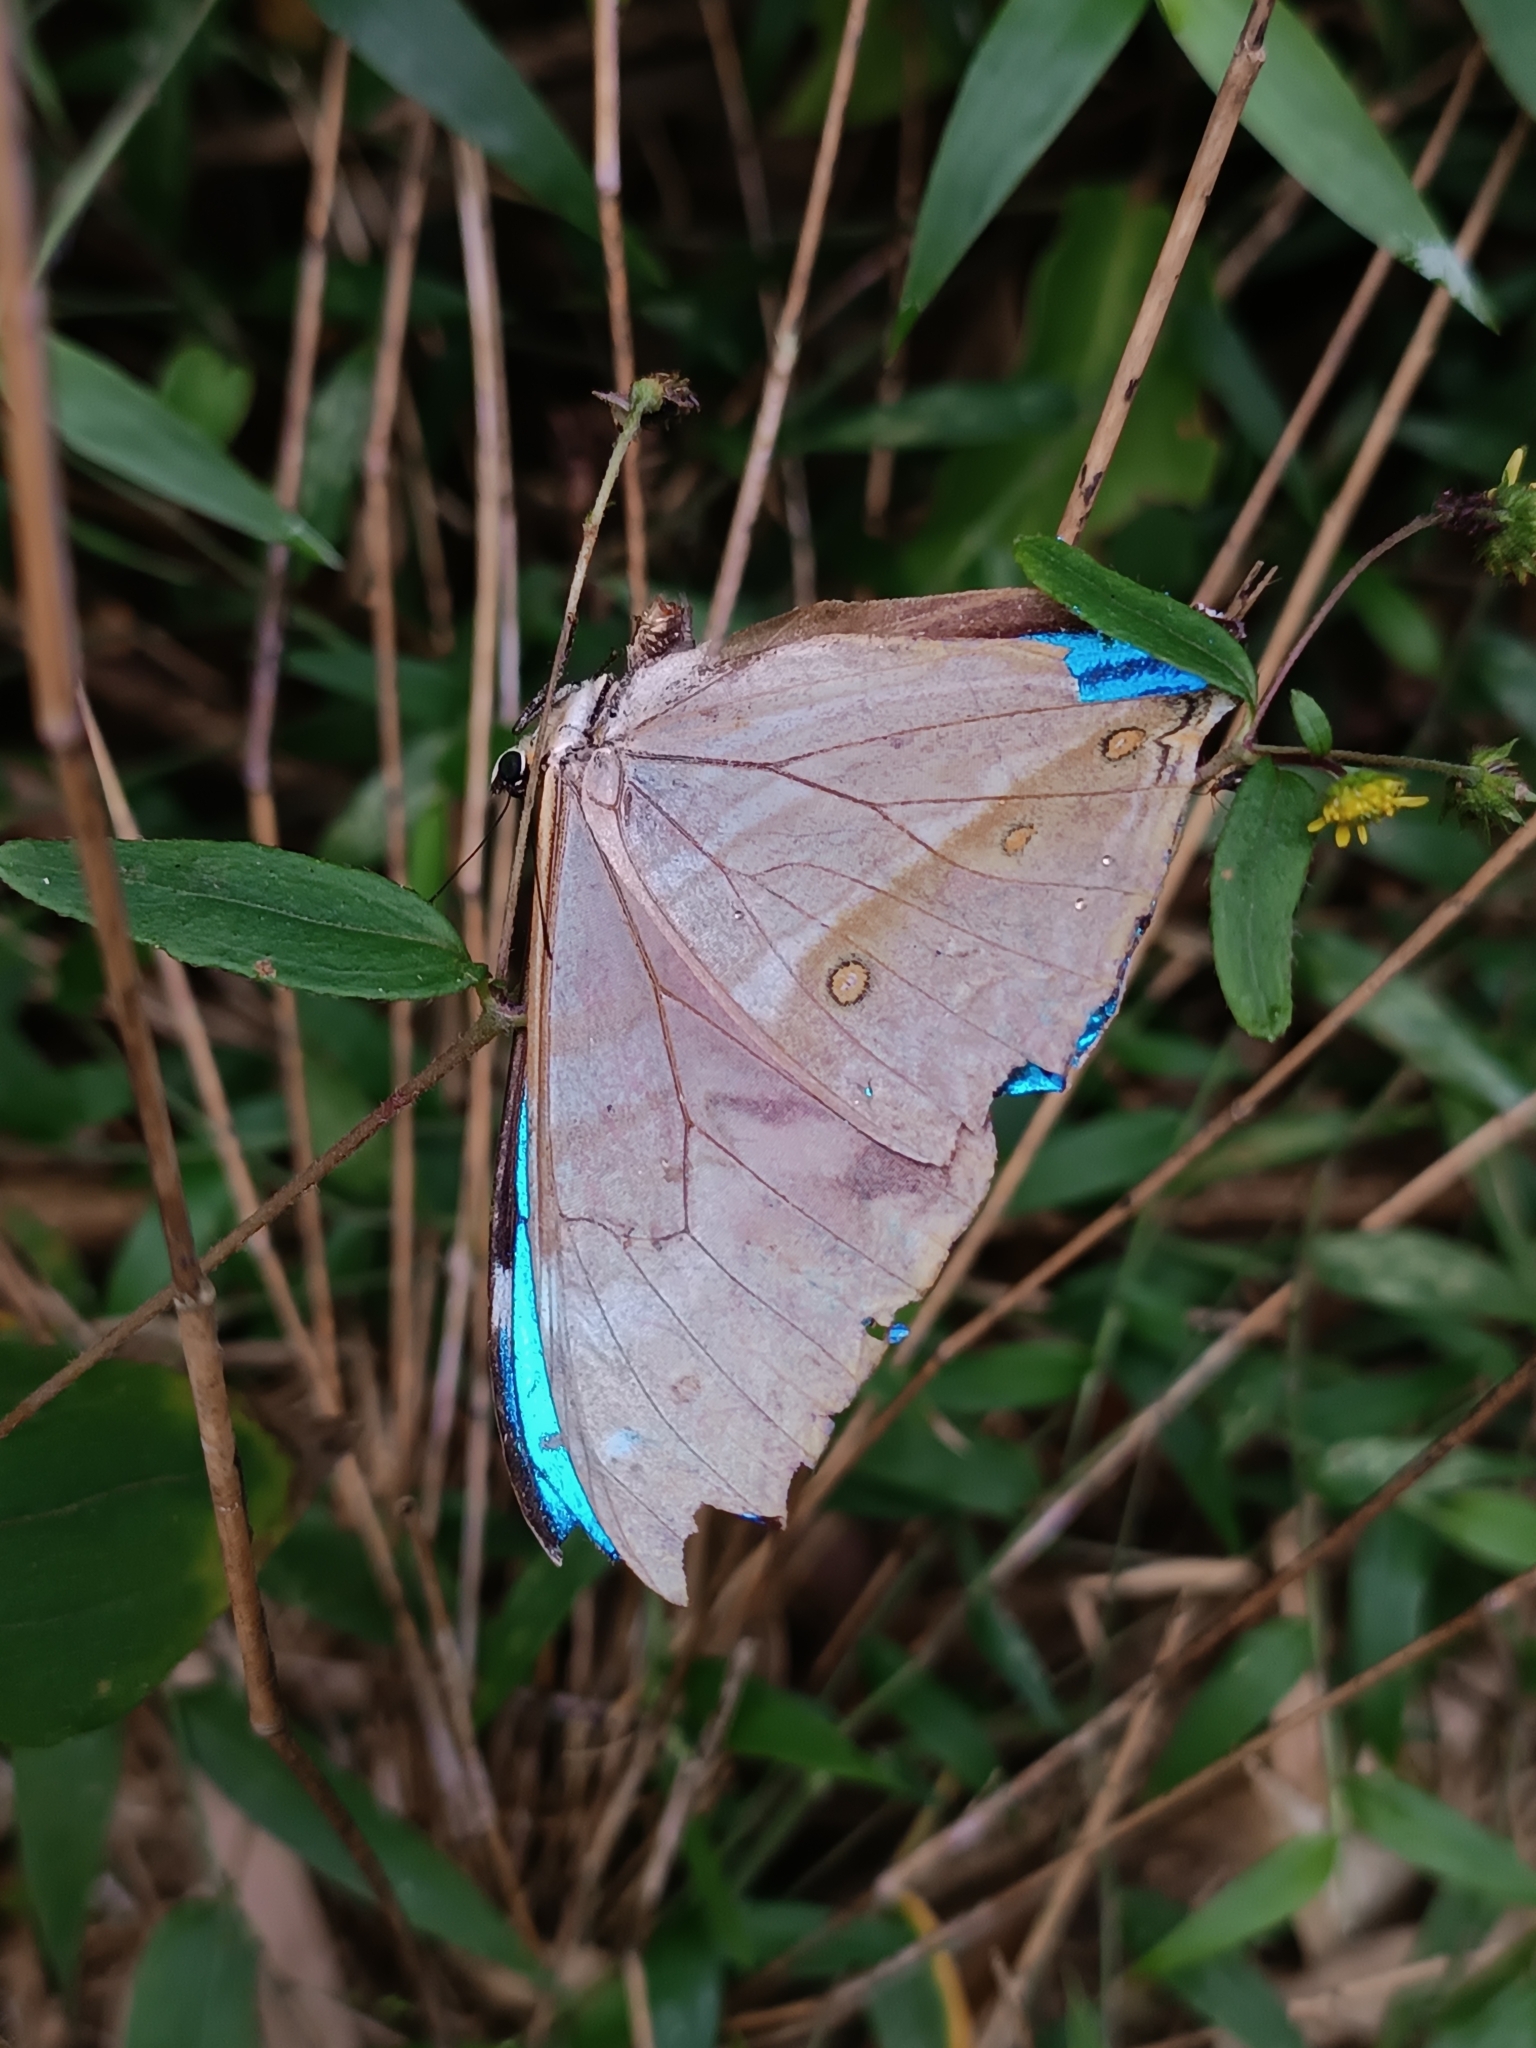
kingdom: Animalia
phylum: Arthropoda
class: Insecta
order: Lepidoptera
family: Nymphalidae
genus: Morpho
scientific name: Morpho aega
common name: Aega morpho
